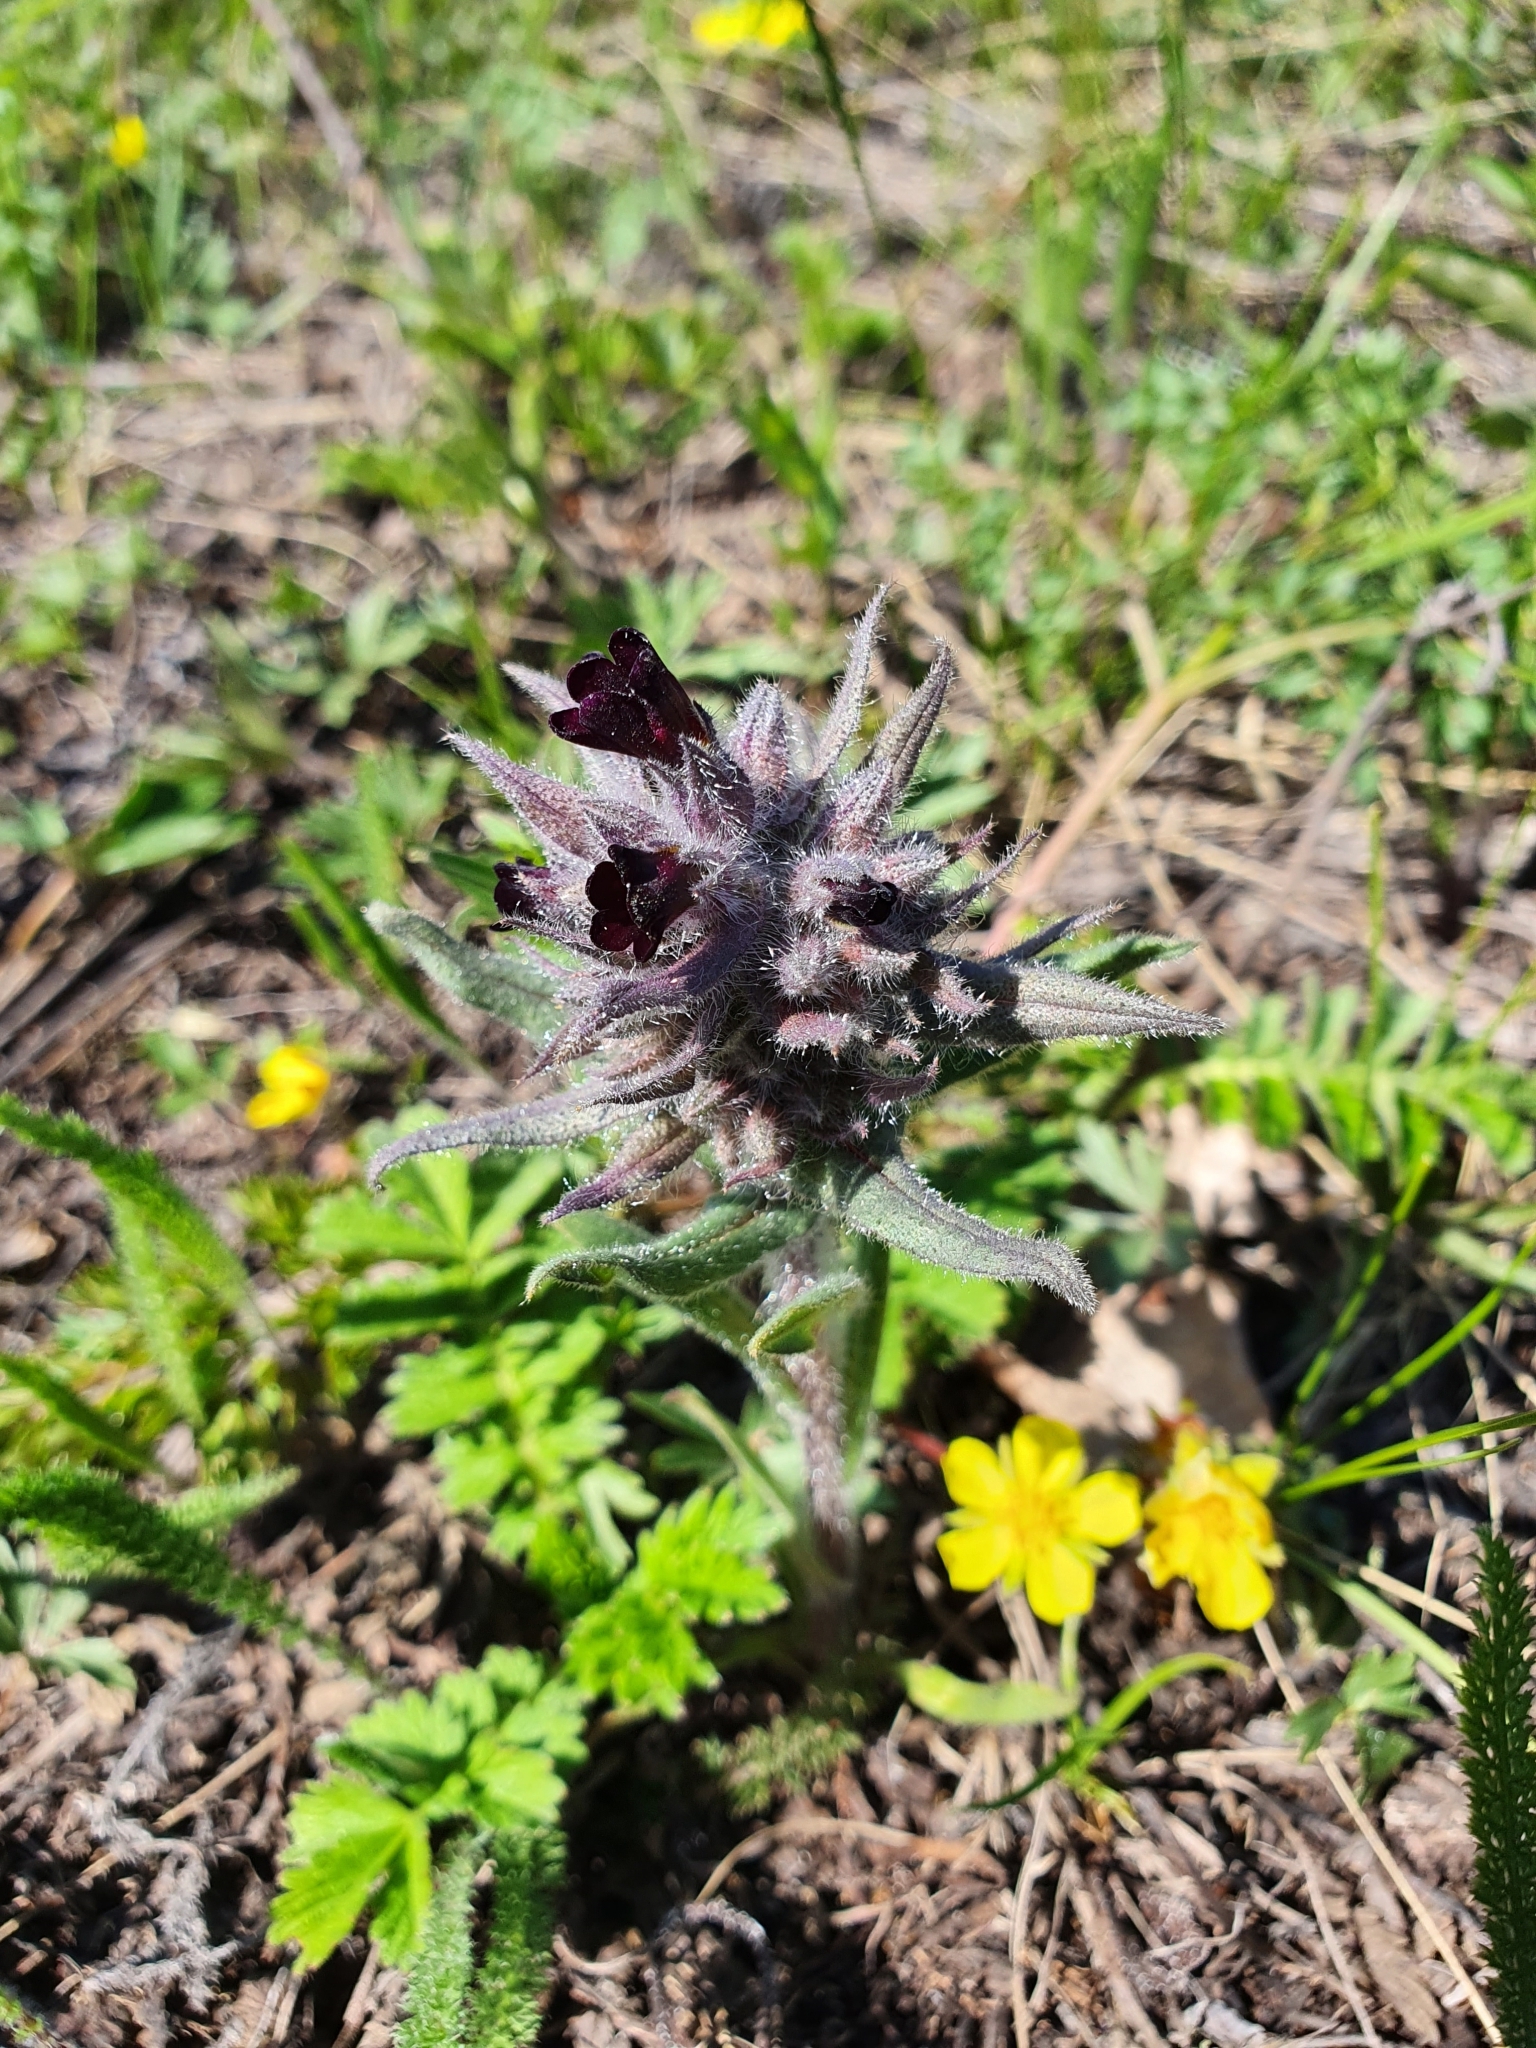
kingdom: Plantae
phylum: Tracheophyta
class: Magnoliopsida
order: Boraginales
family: Boraginaceae
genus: Nonea
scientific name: Nonea pulla
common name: Brown nonea
